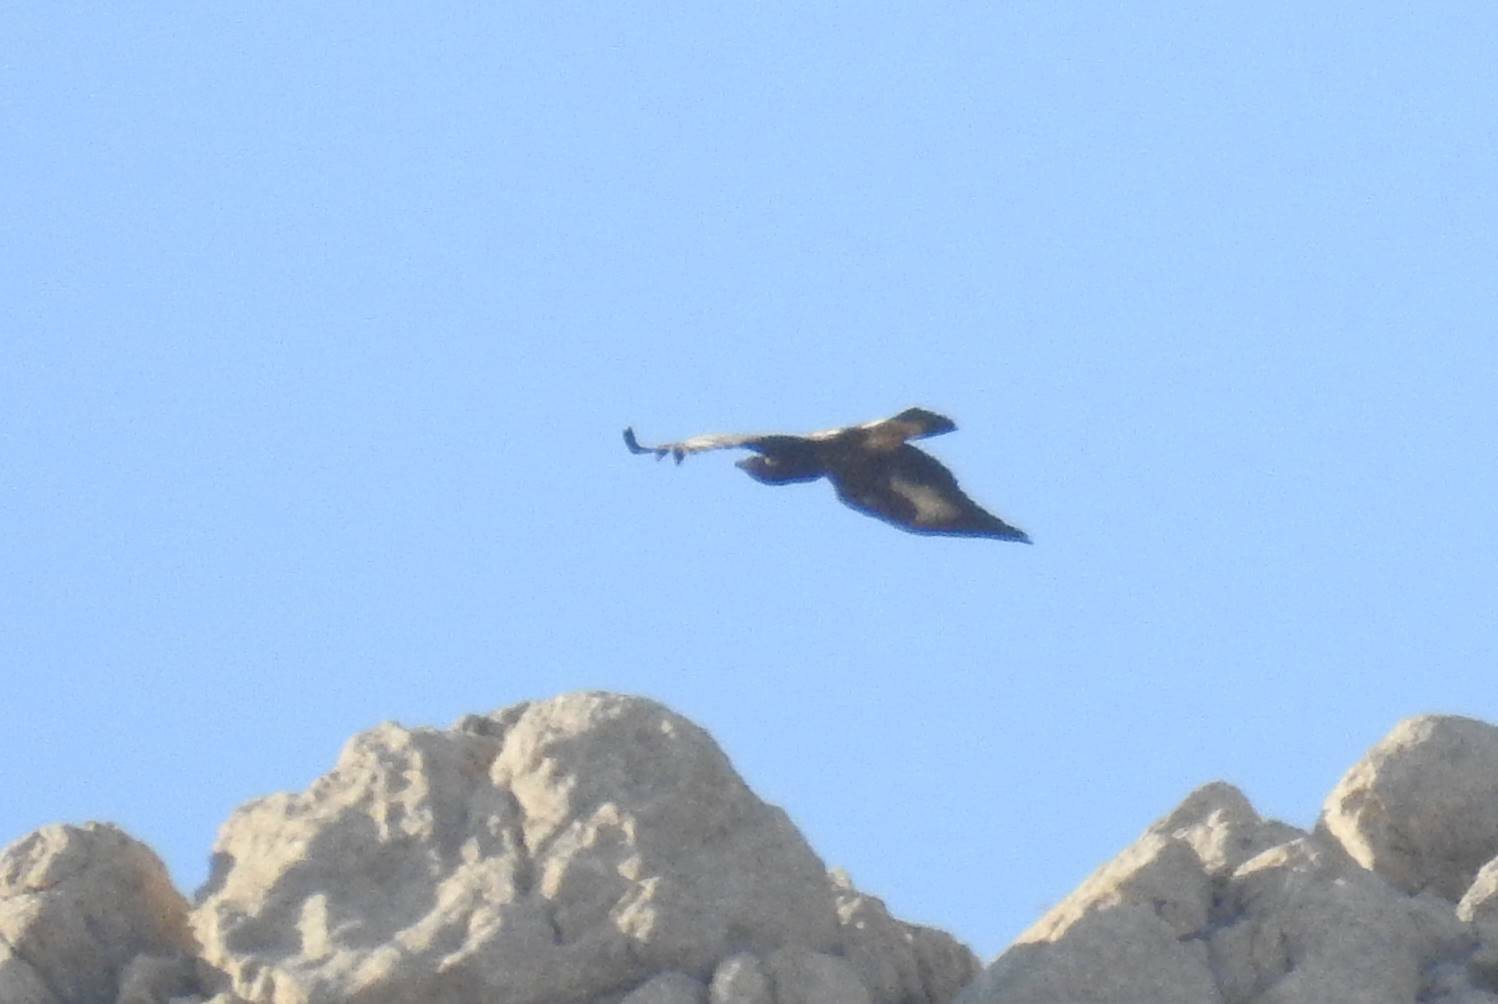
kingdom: Animalia
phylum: Chordata
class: Aves
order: Accipitriformes
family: Accipitridae
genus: Aquila
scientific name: Aquila chrysaetos
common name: Golden eagle
